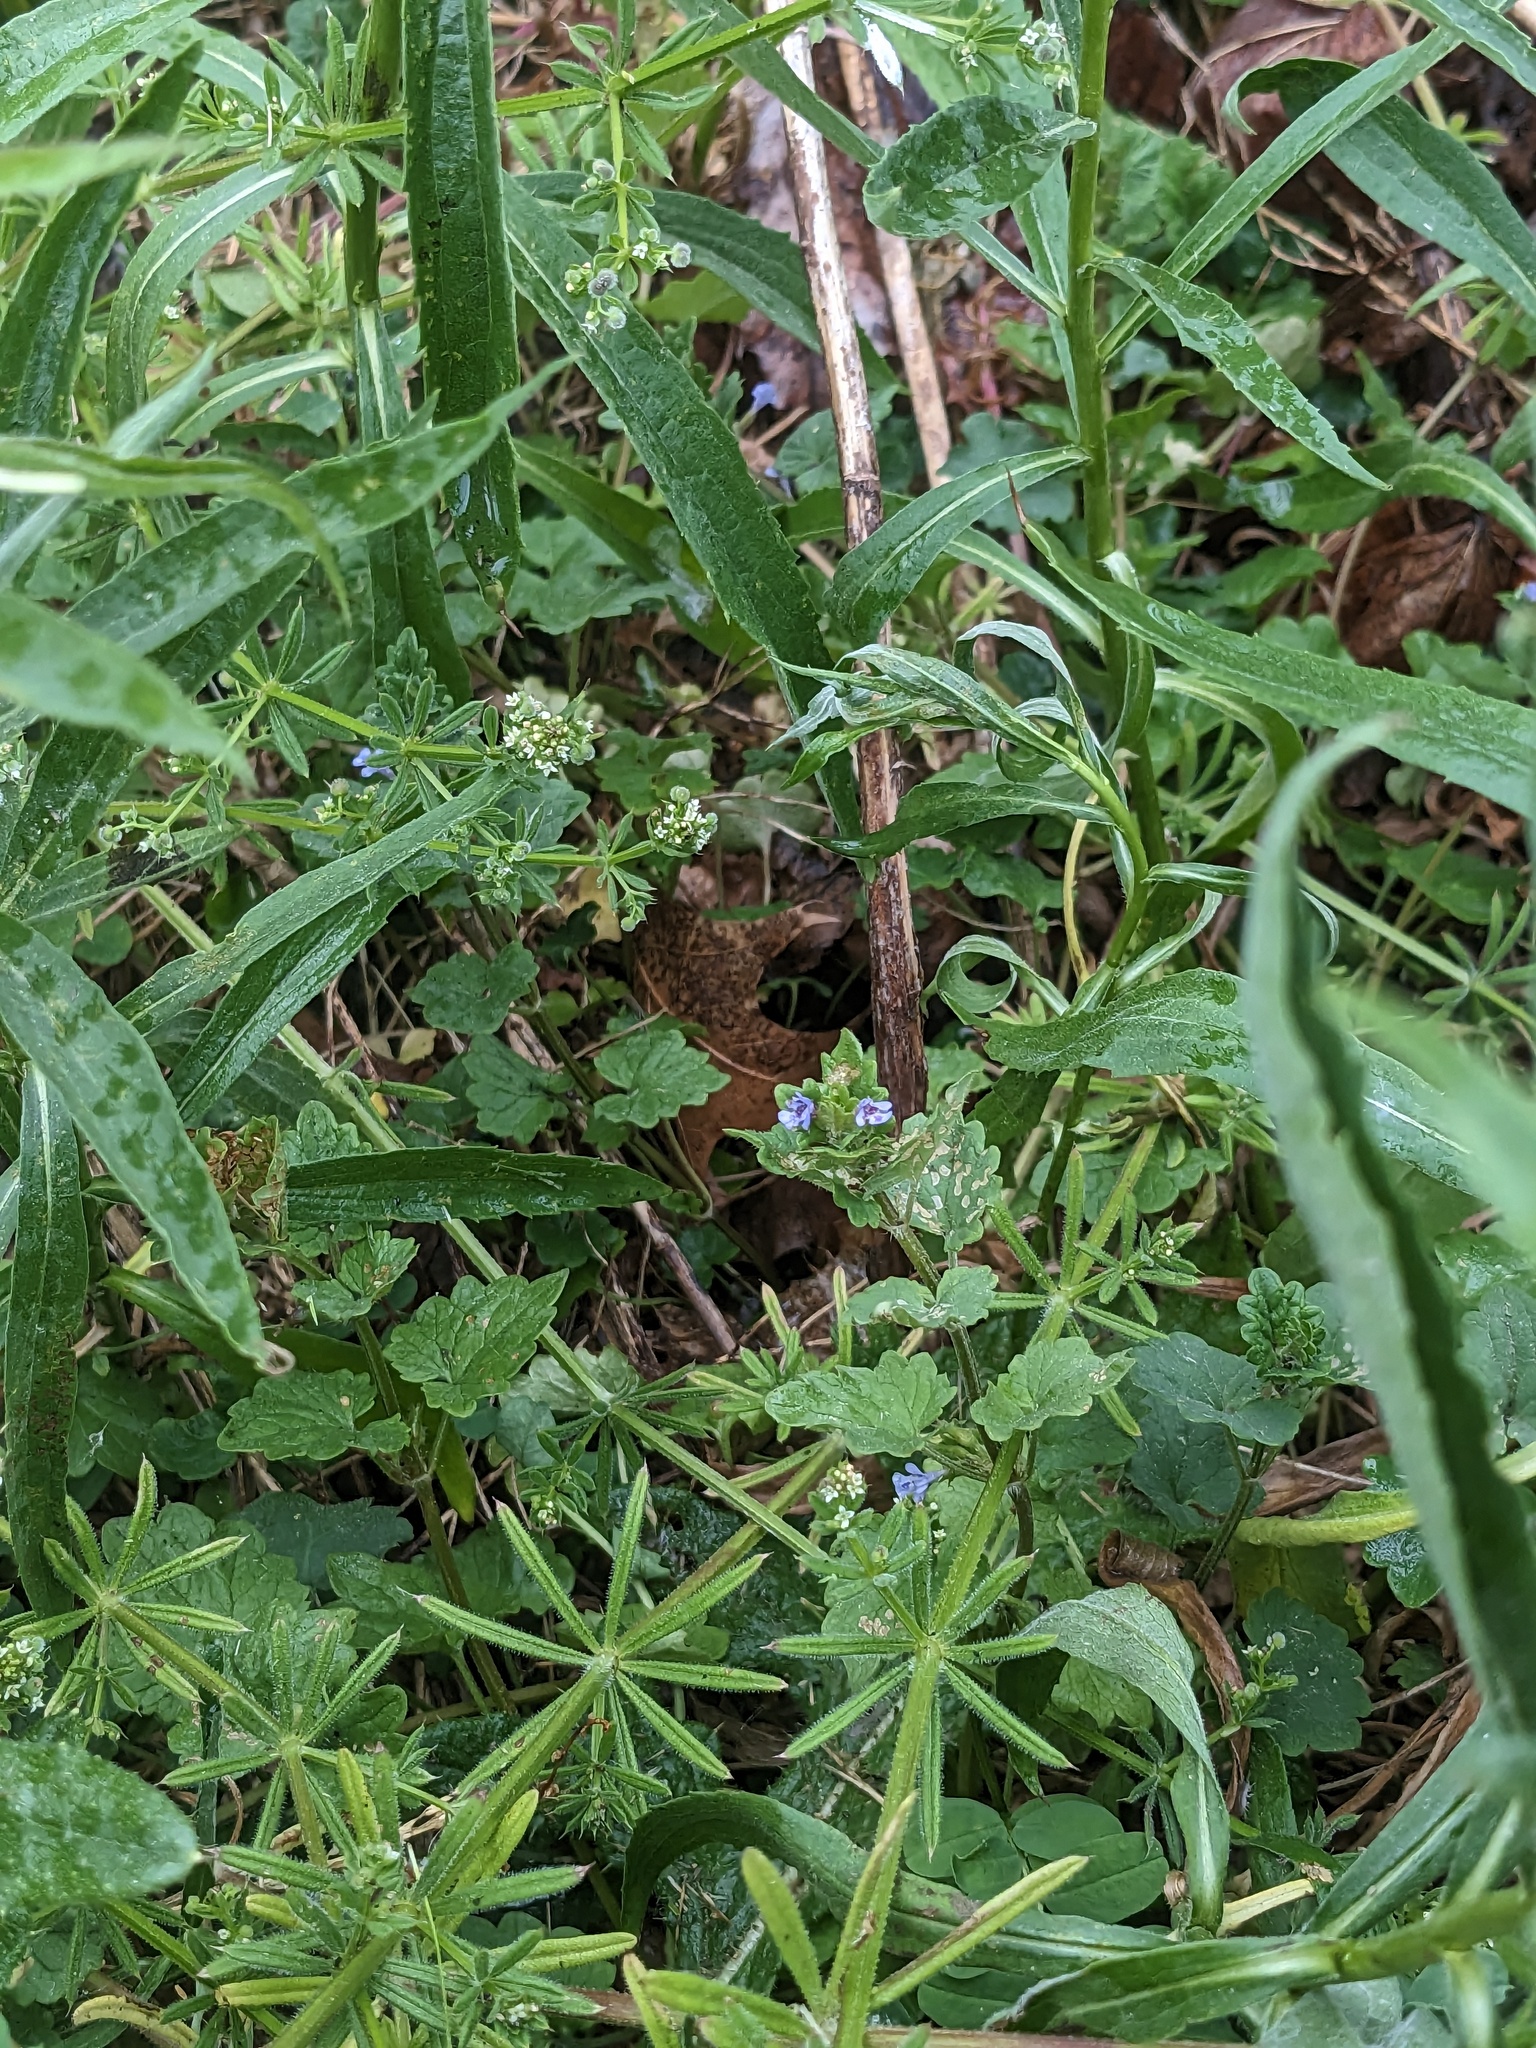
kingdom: Plantae
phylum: Tracheophyta
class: Magnoliopsida
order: Lamiales
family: Lamiaceae
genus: Glechoma
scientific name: Glechoma hederacea
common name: Ground ivy
